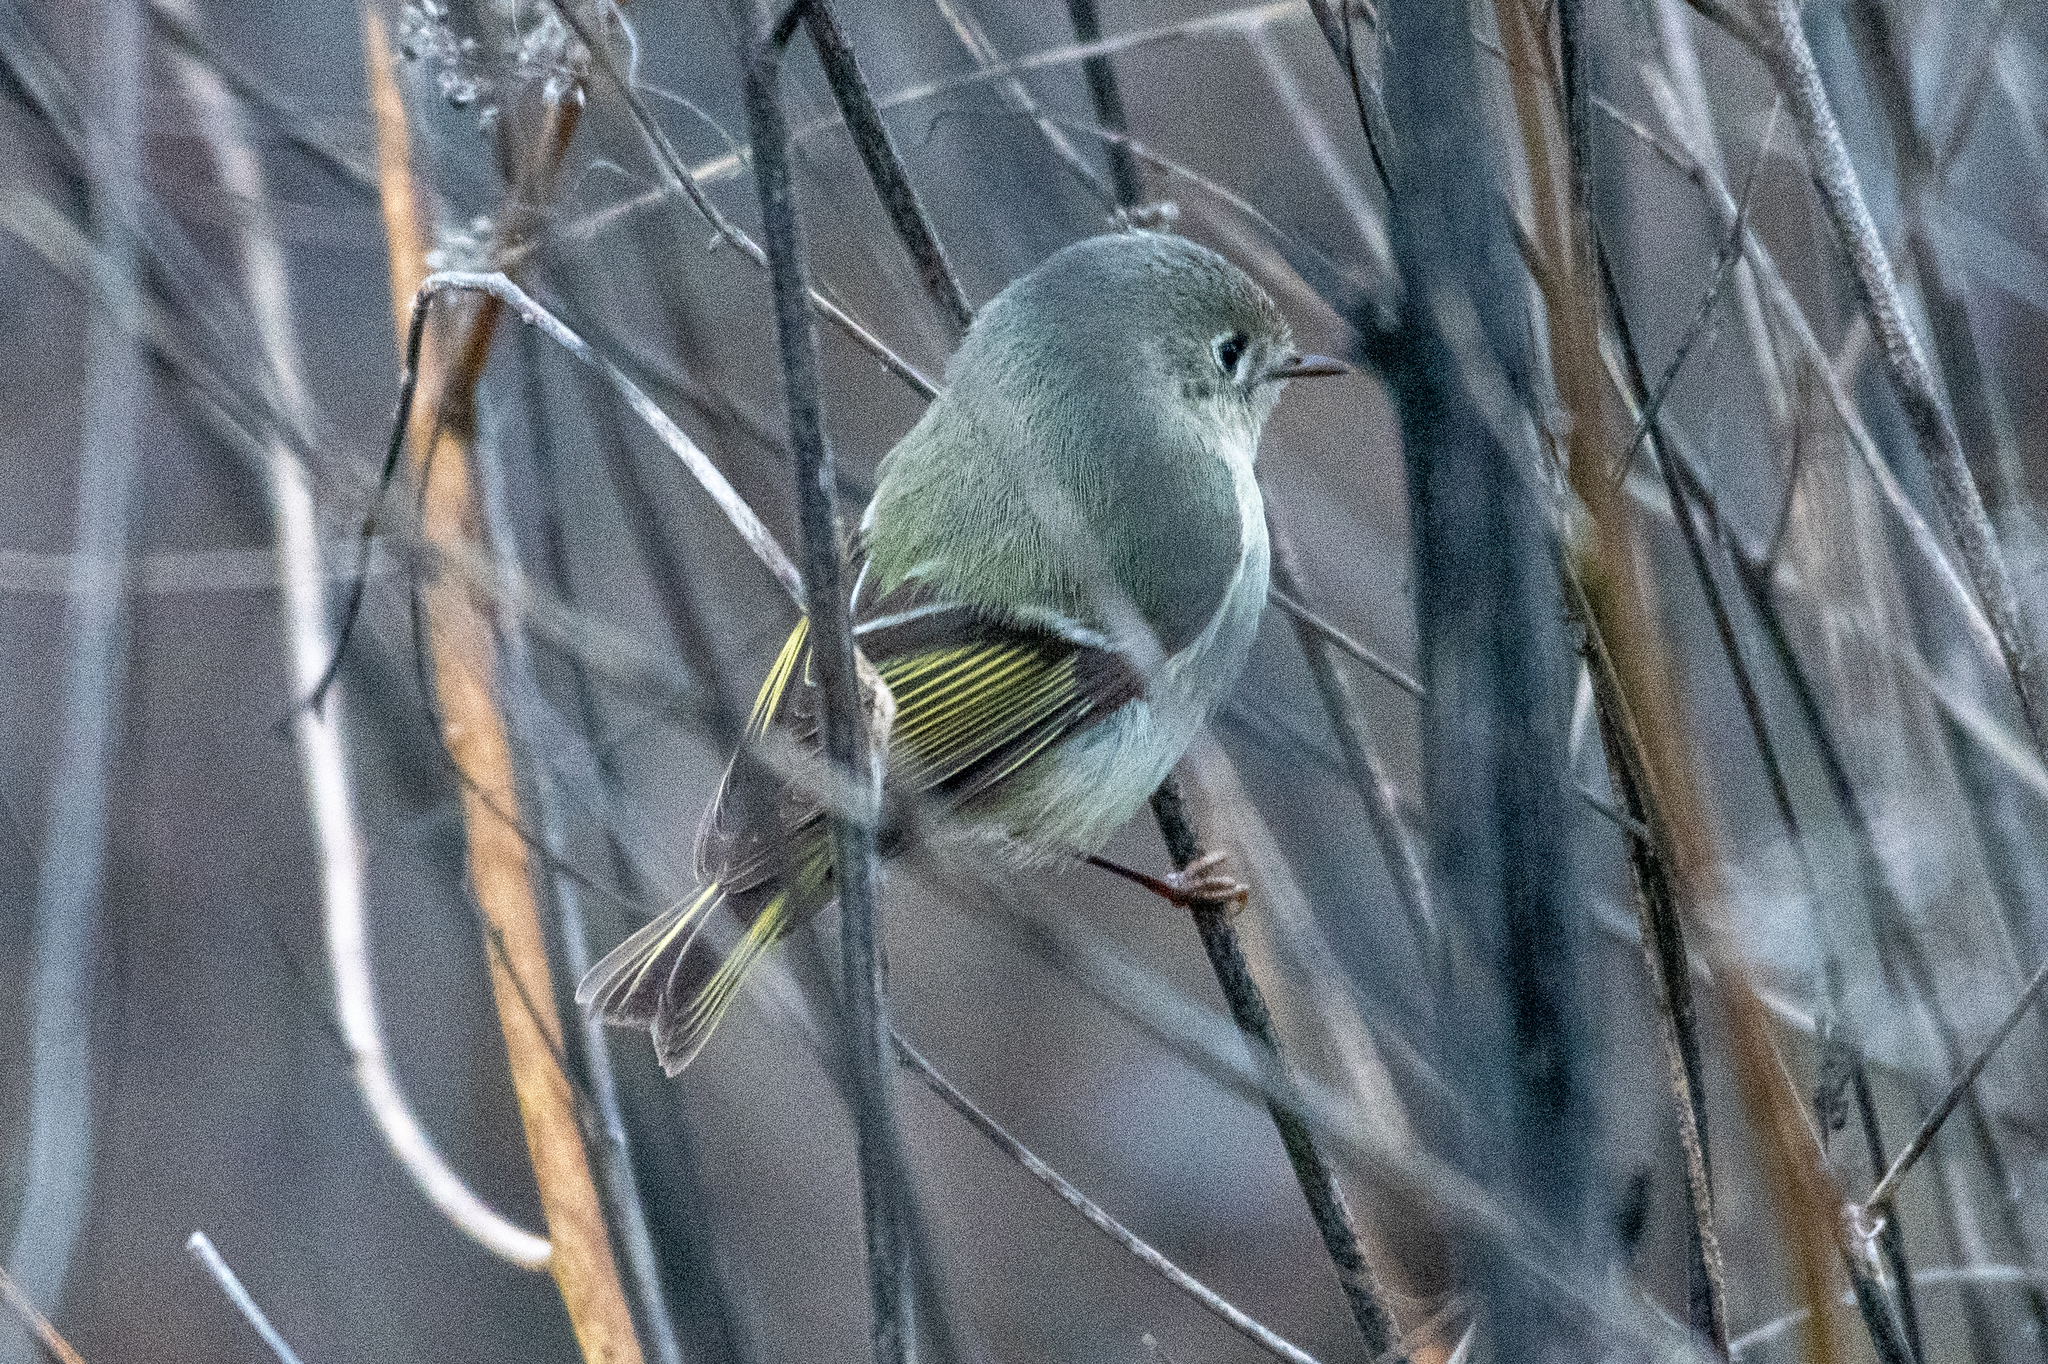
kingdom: Animalia
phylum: Chordata
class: Aves
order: Passeriformes
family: Regulidae
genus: Regulus
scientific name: Regulus calendula
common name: Ruby-crowned kinglet
